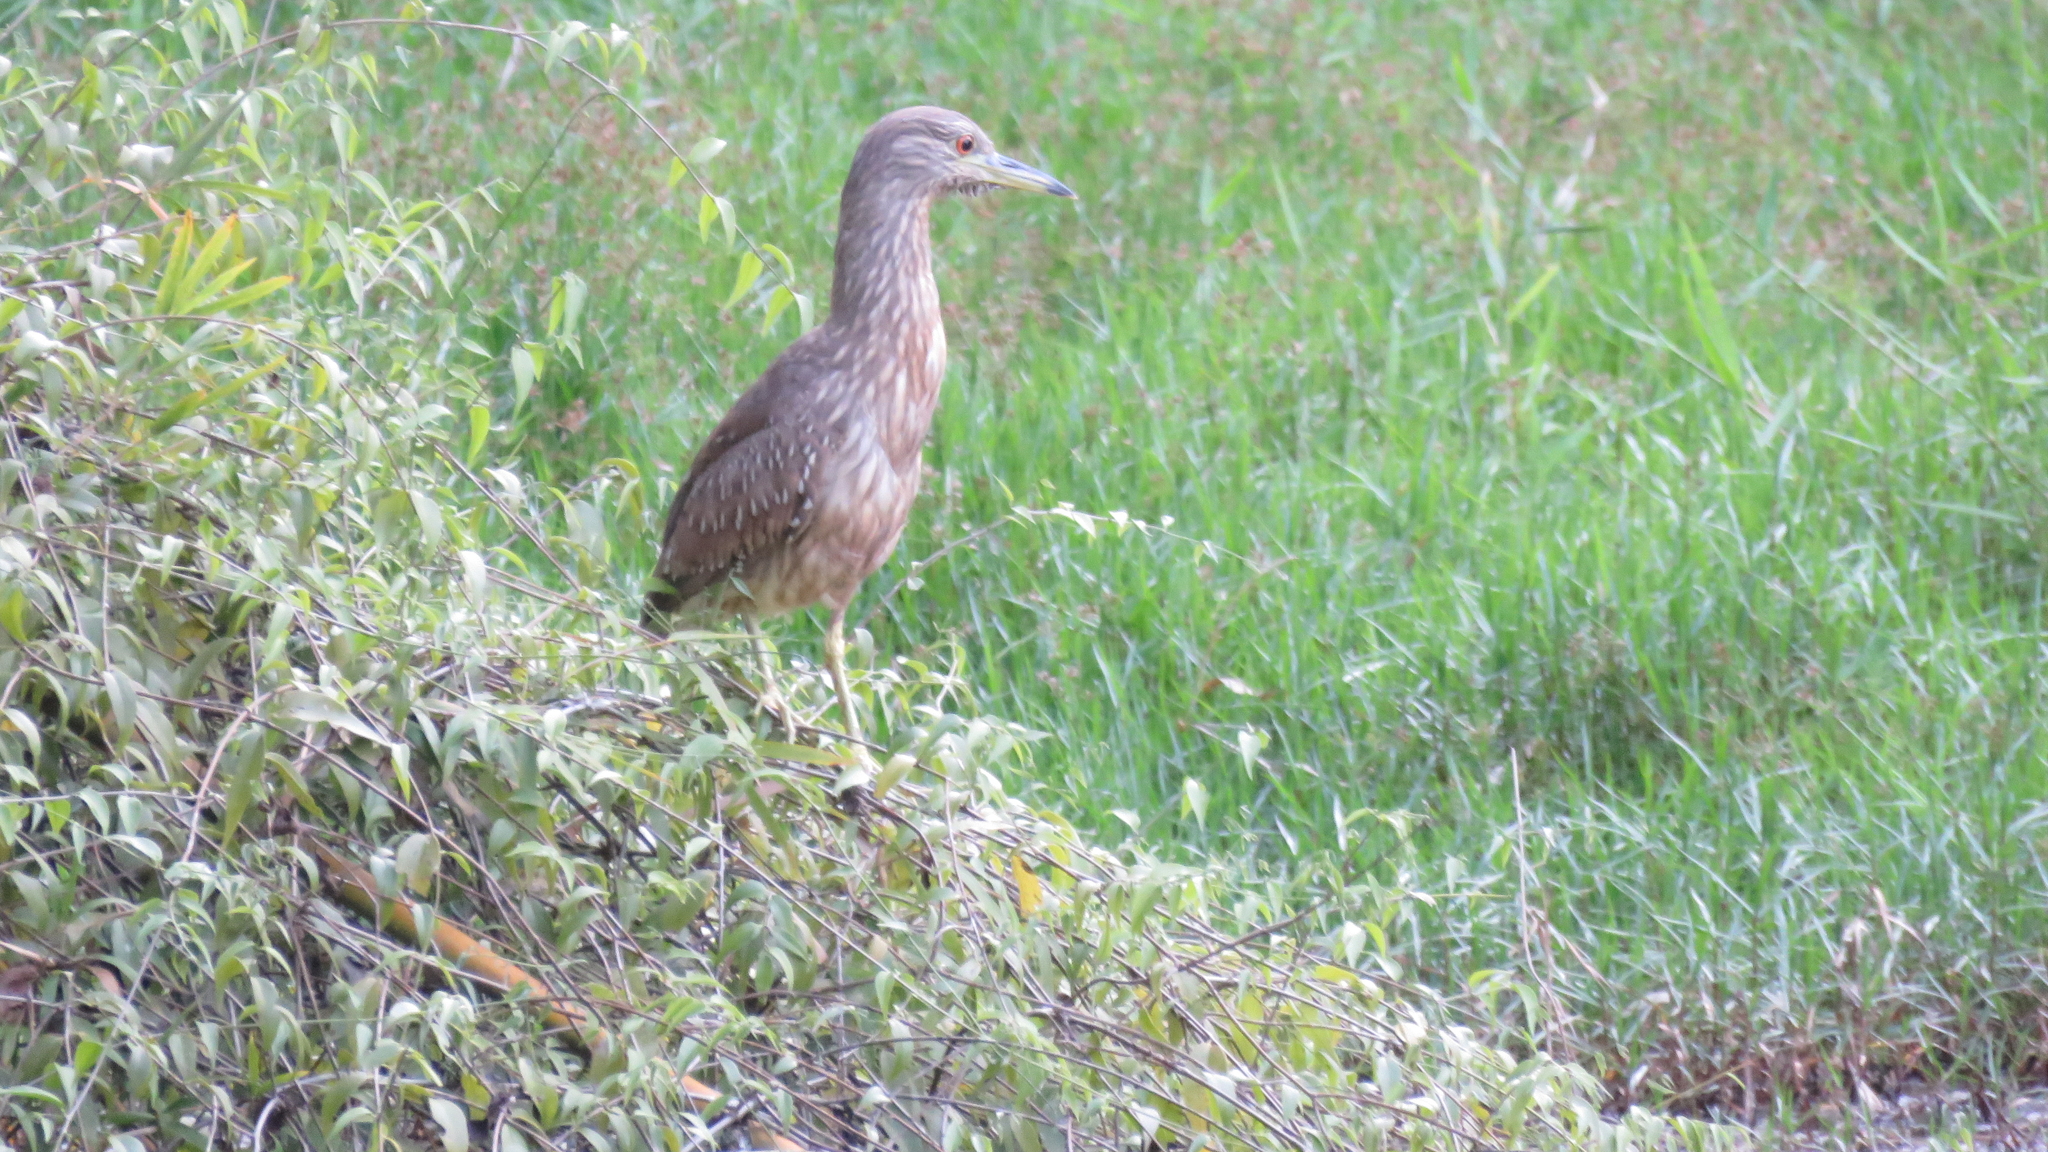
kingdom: Animalia
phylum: Chordata
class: Aves
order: Pelecaniformes
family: Ardeidae
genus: Nycticorax
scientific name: Nycticorax nycticorax
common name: Black-crowned night heron
